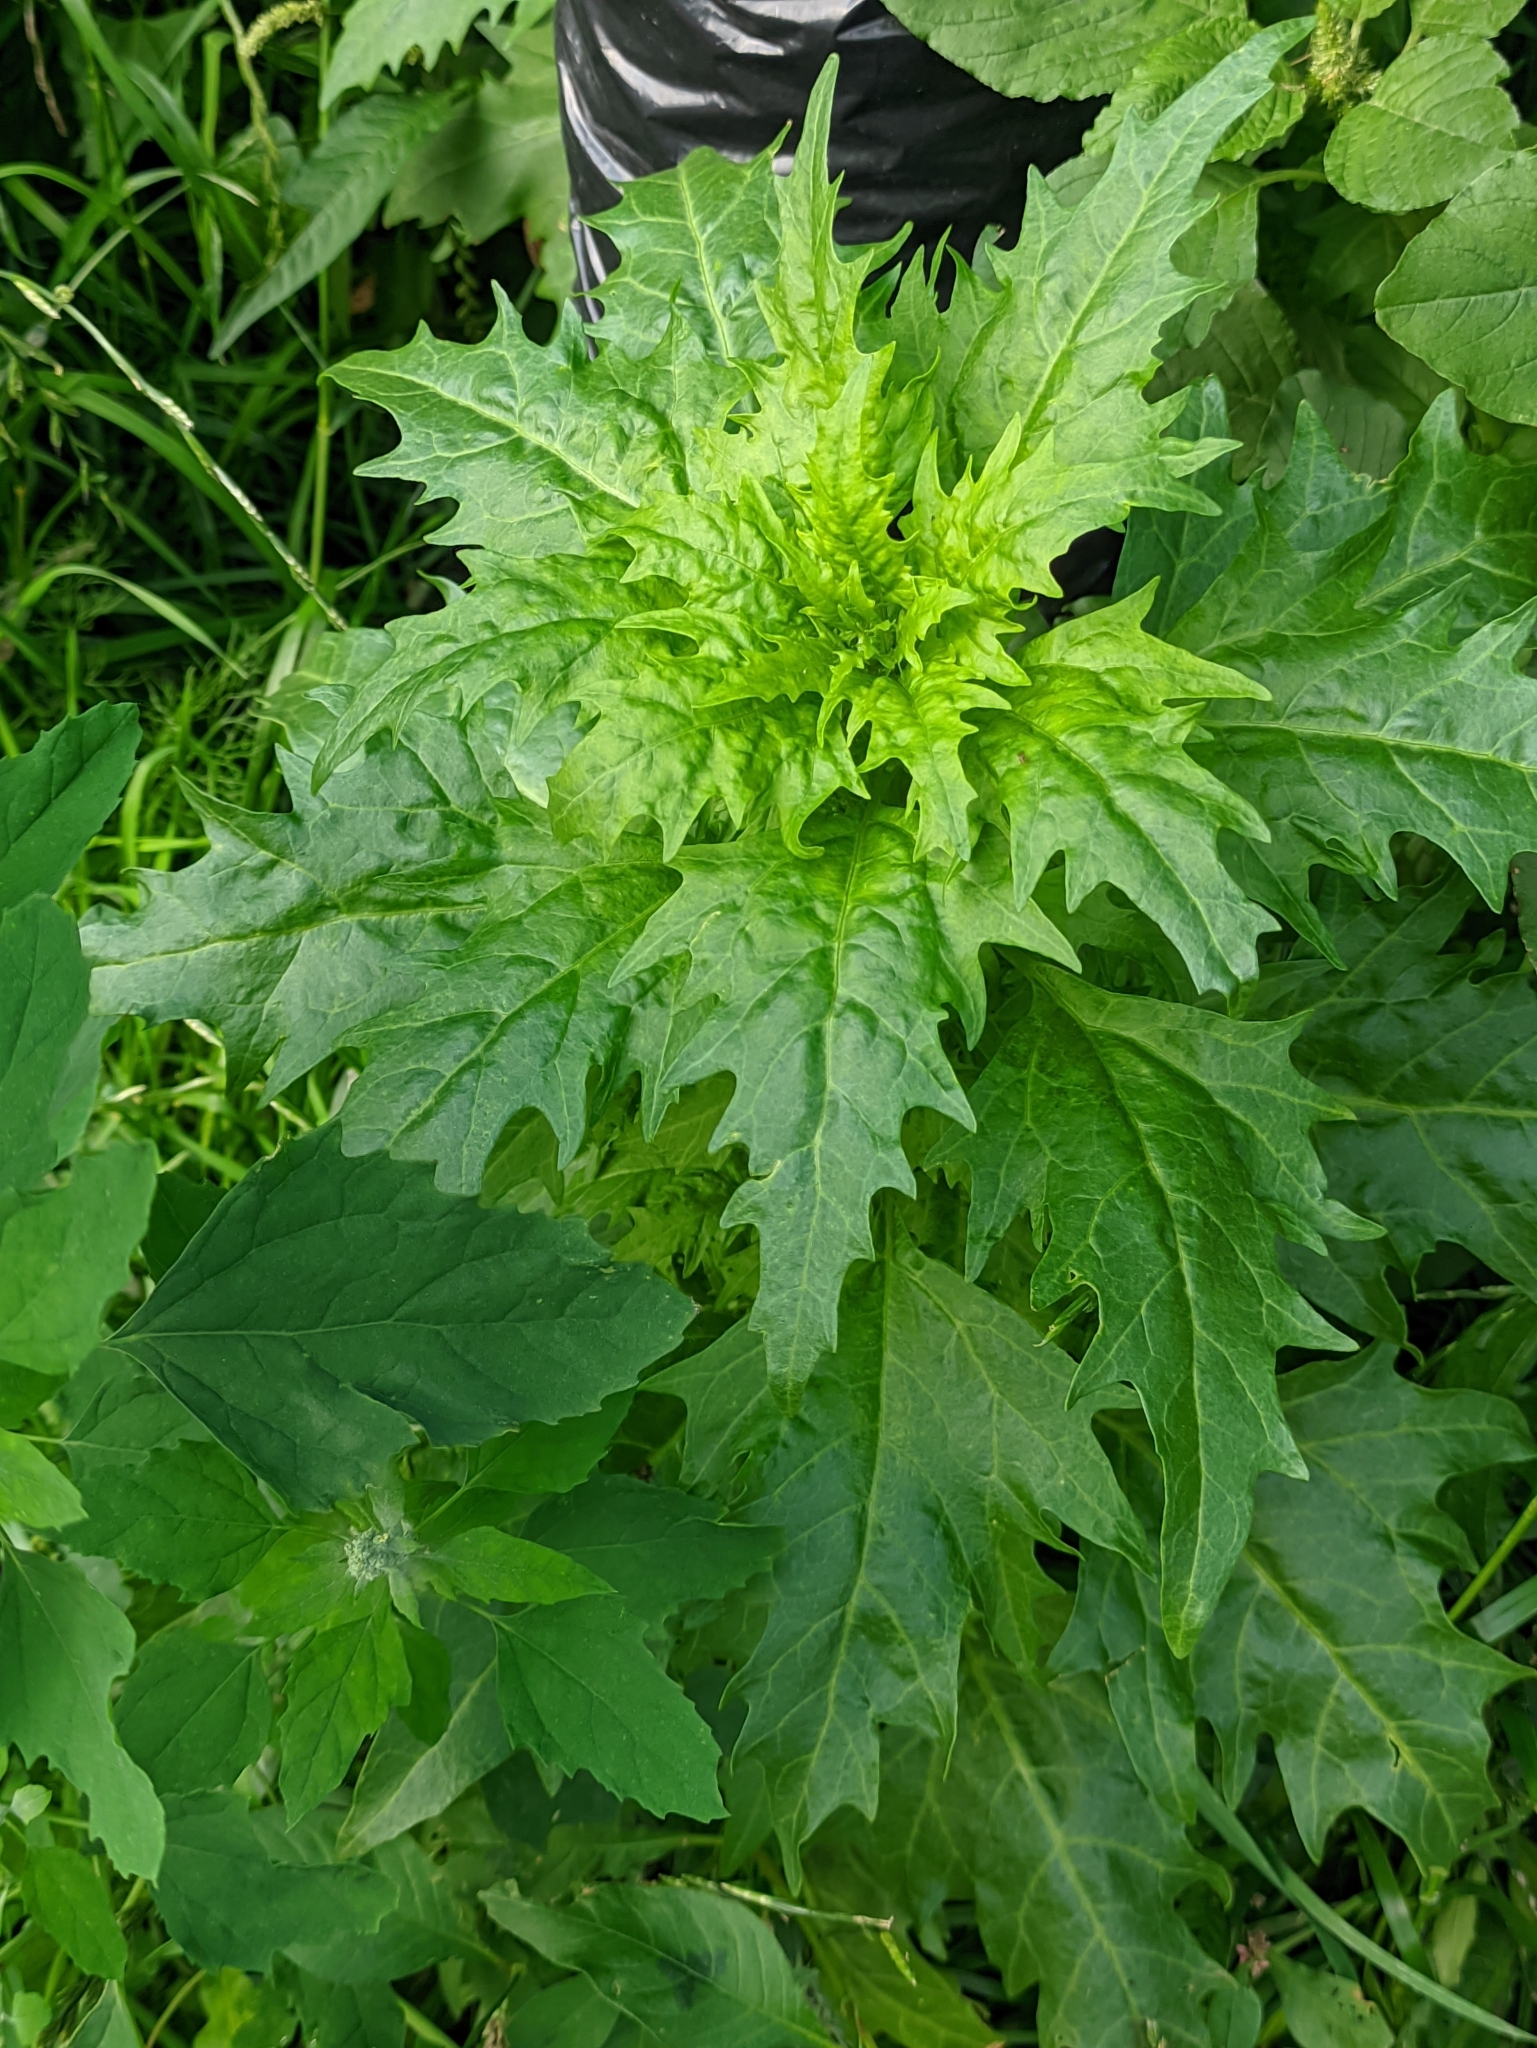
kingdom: Plantae
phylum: Tracheophyta
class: Magnoliopsida
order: Caryophyllales
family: Amaranthaceae
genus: Oxybasis
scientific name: Oxybasis rubra
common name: Red goosefoot
